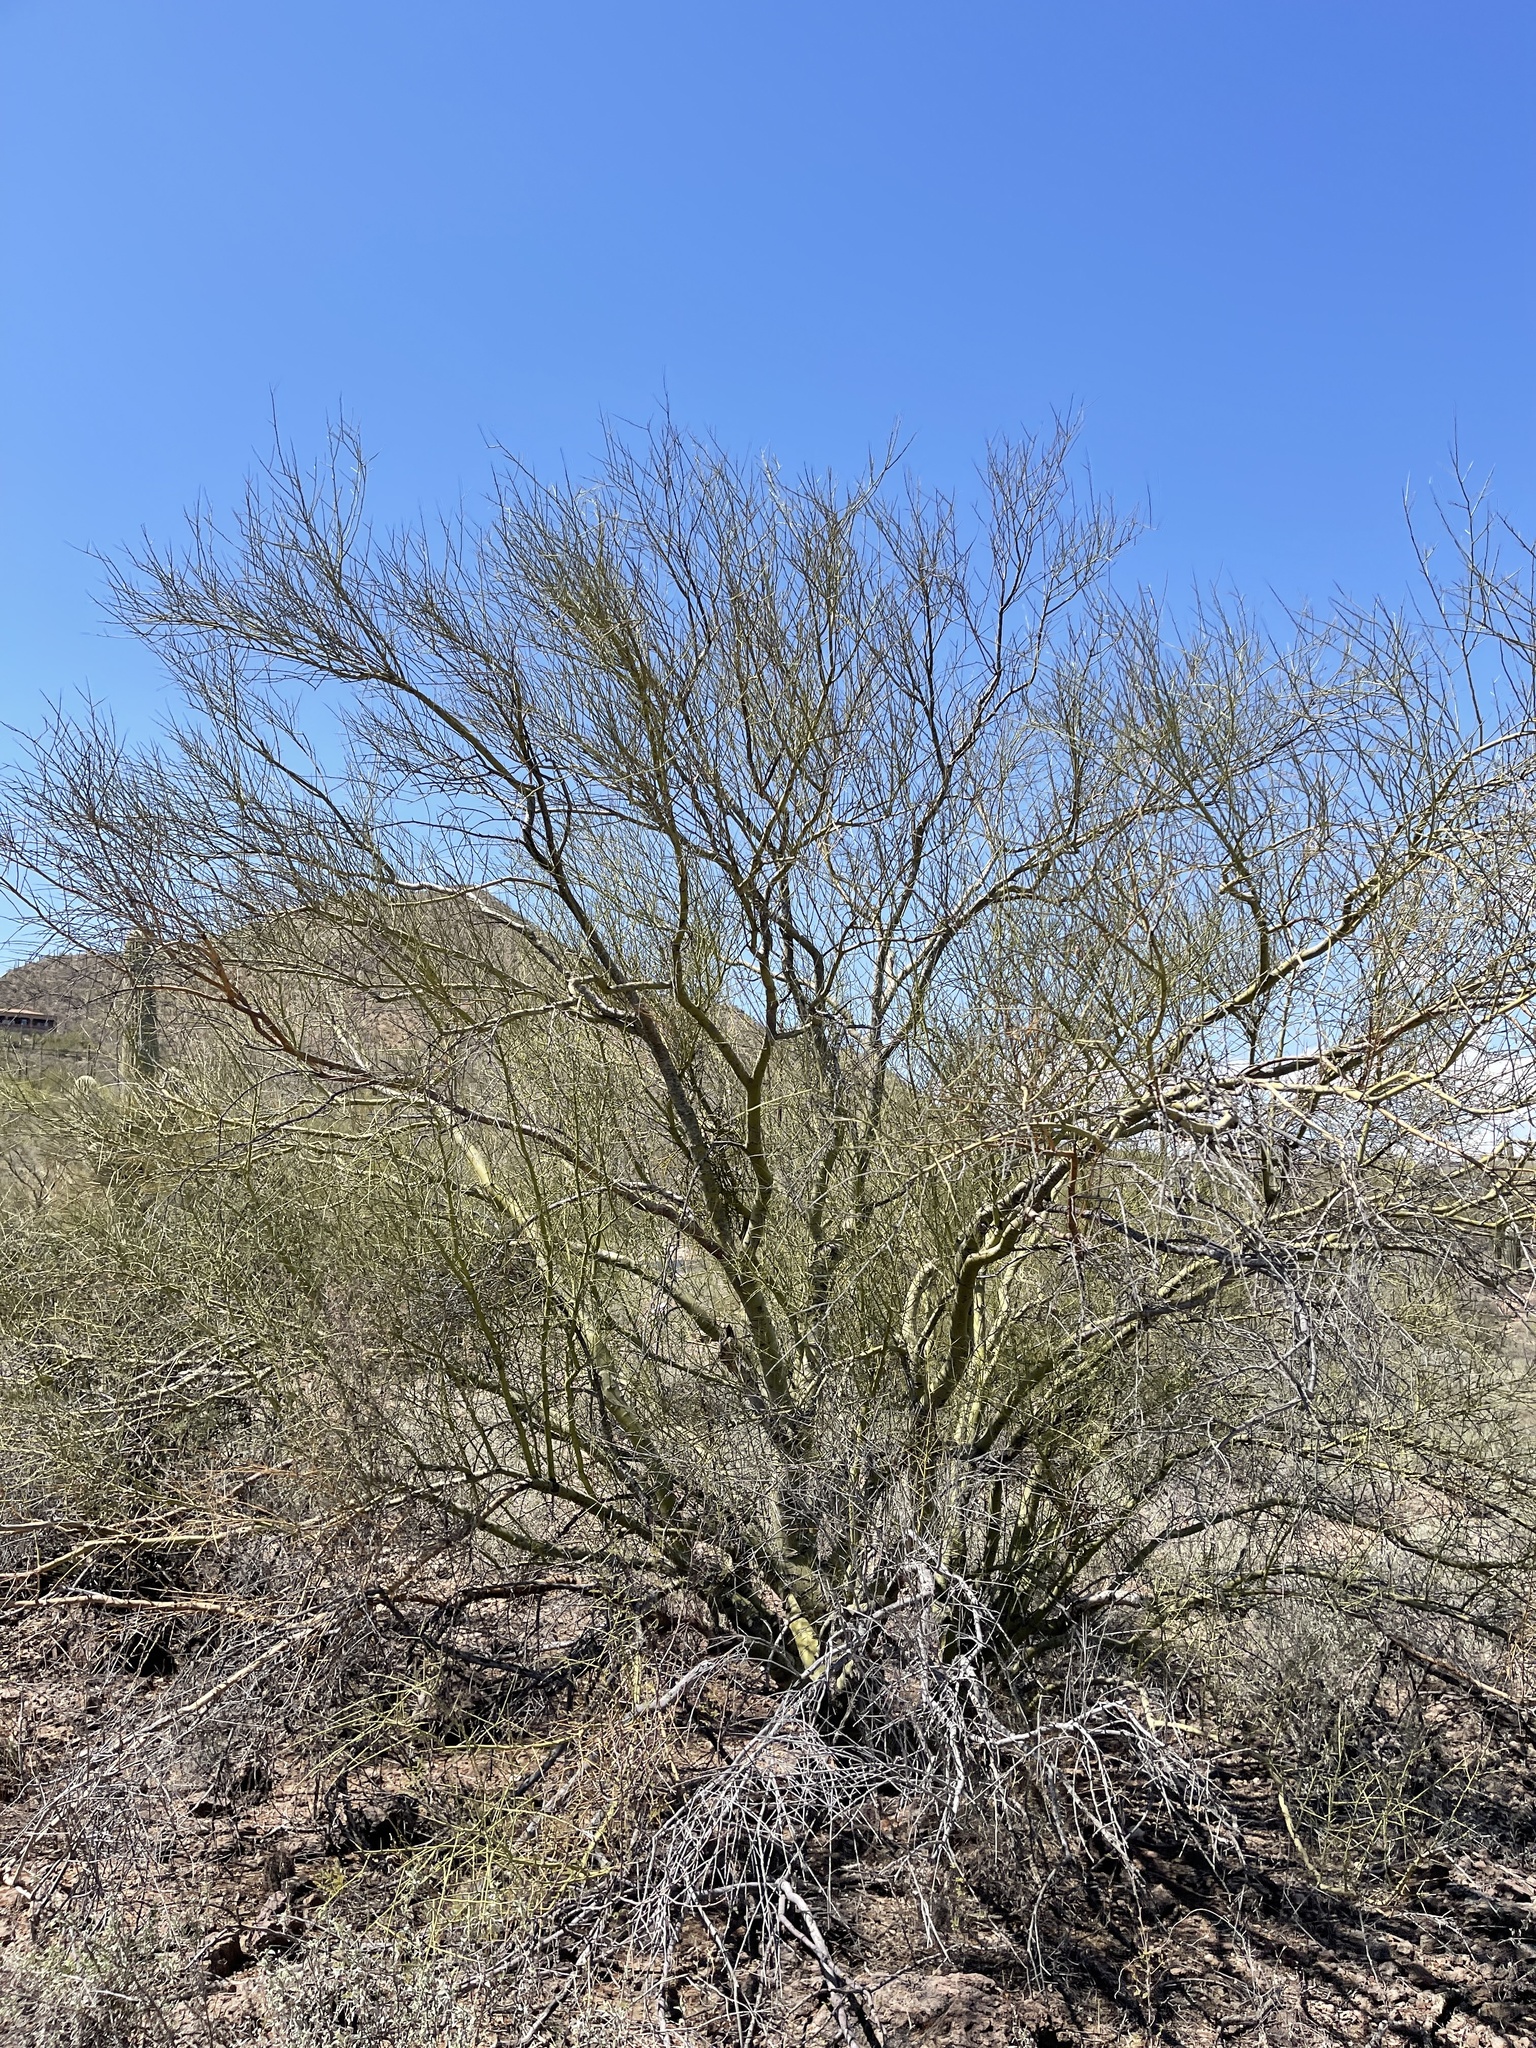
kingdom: Plantae
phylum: Tracheophyta
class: Magnoliopsida
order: Fabales
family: Fabaceae
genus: Parkinsonia
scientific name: Parkinsonia microphylla
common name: Yellow paloverde
